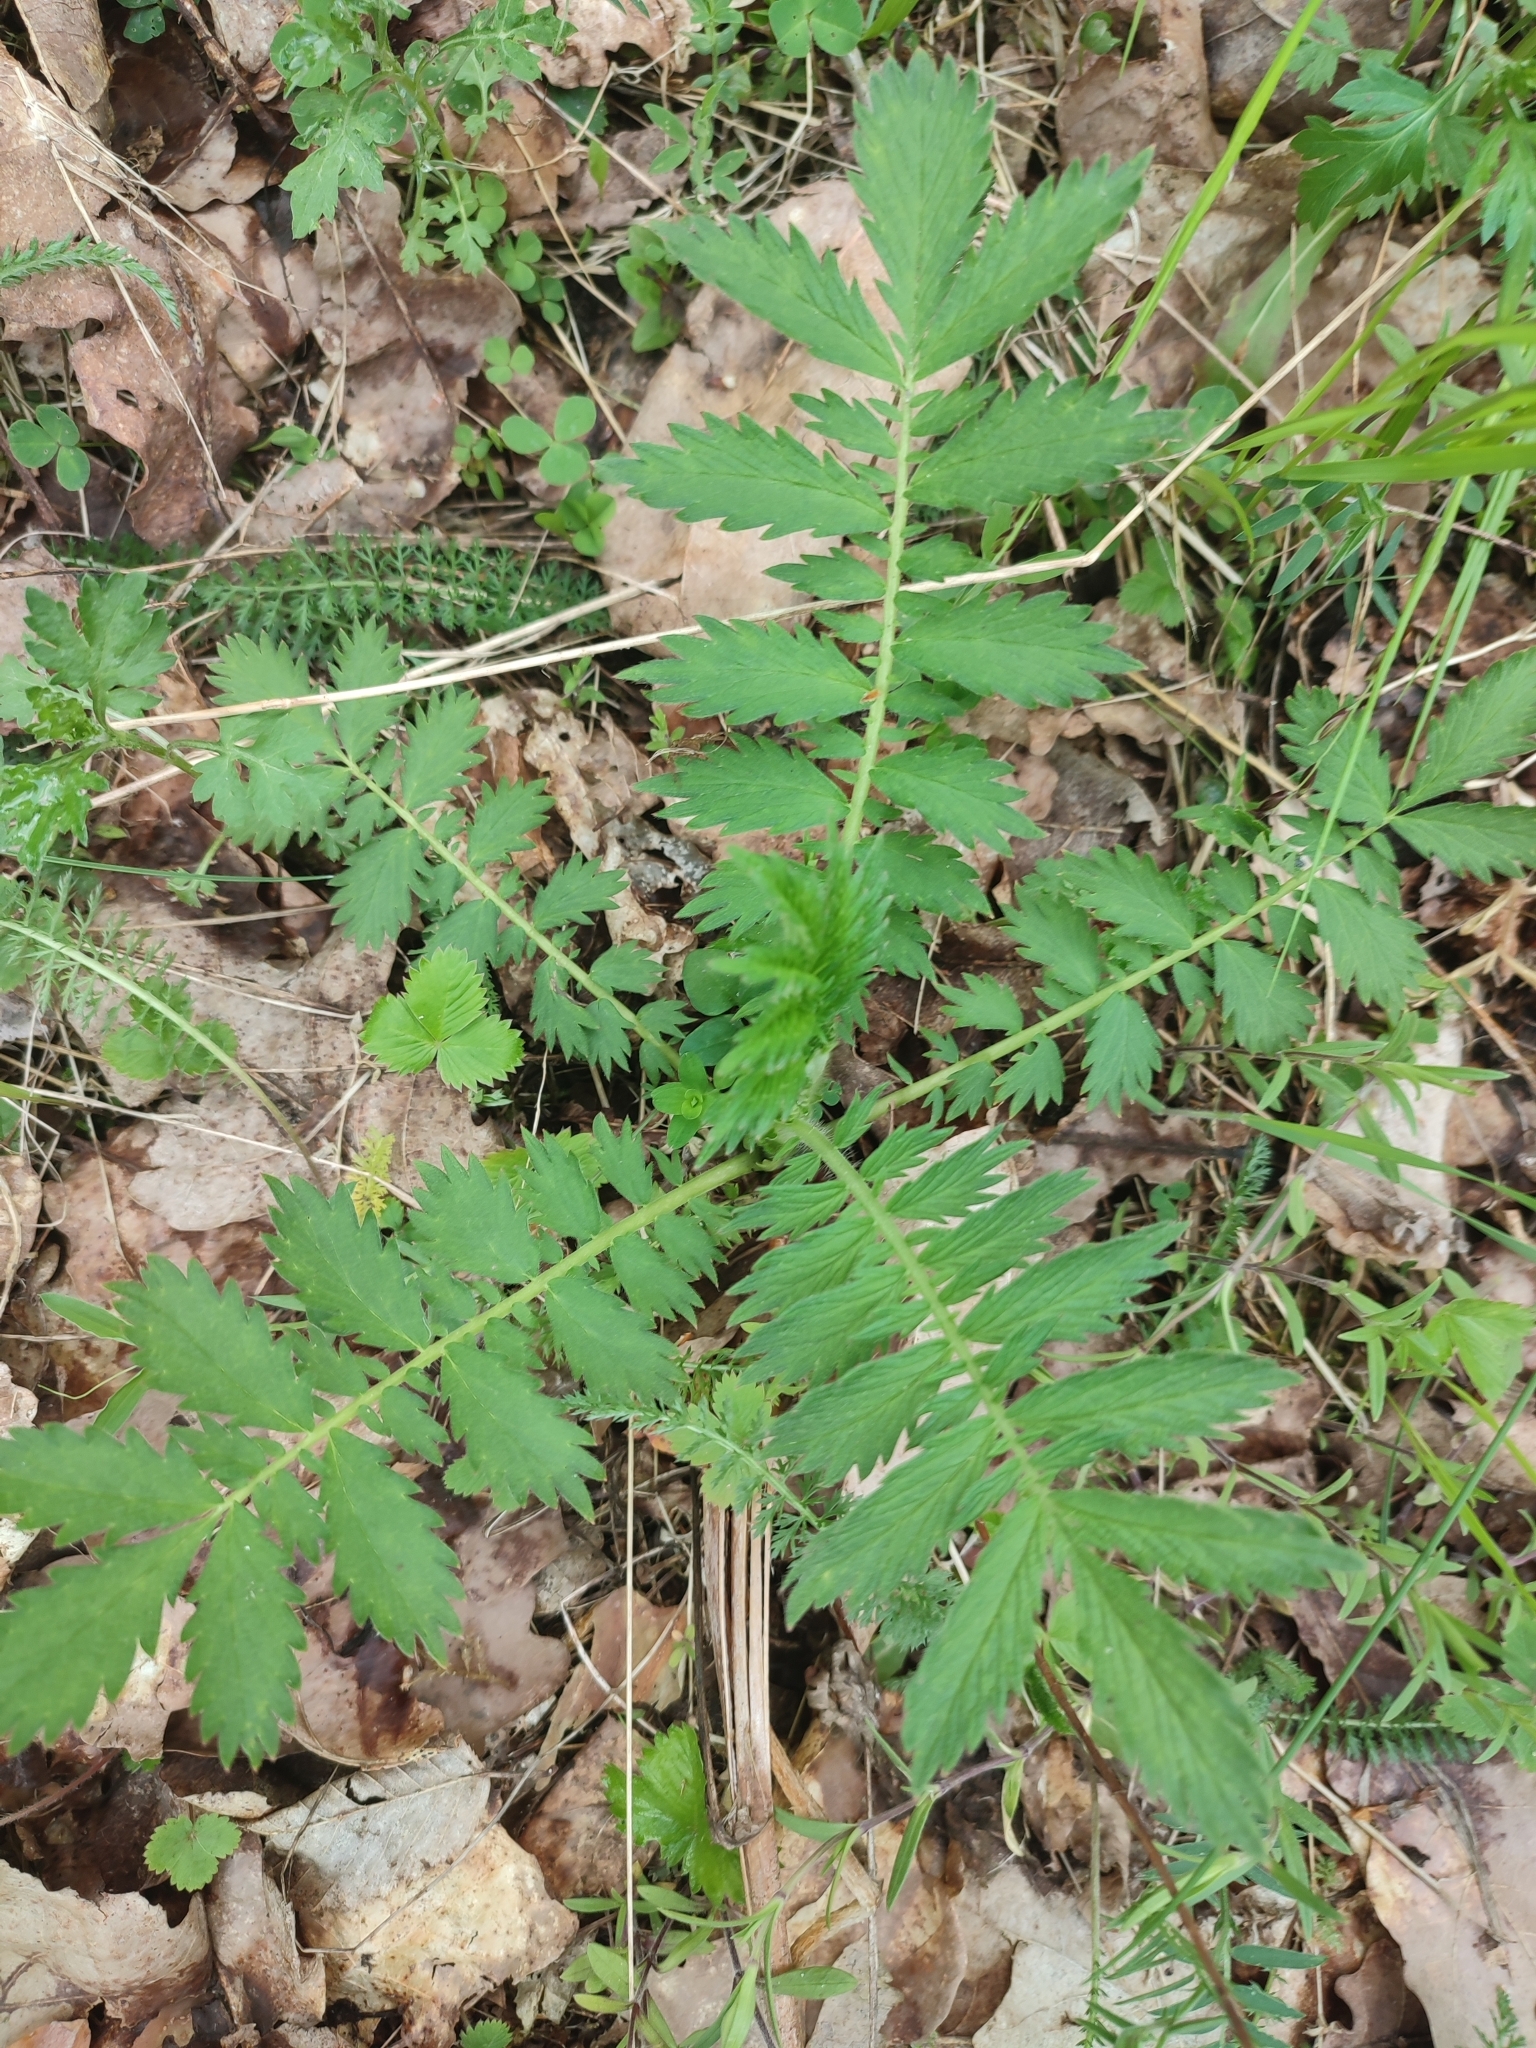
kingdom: Plantae
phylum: Tracheophyta
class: Magnoliopsida
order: Rosales
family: Rosaceae
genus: Agrimonia
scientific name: Agrimonia procera
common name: Fragrant agrimony
